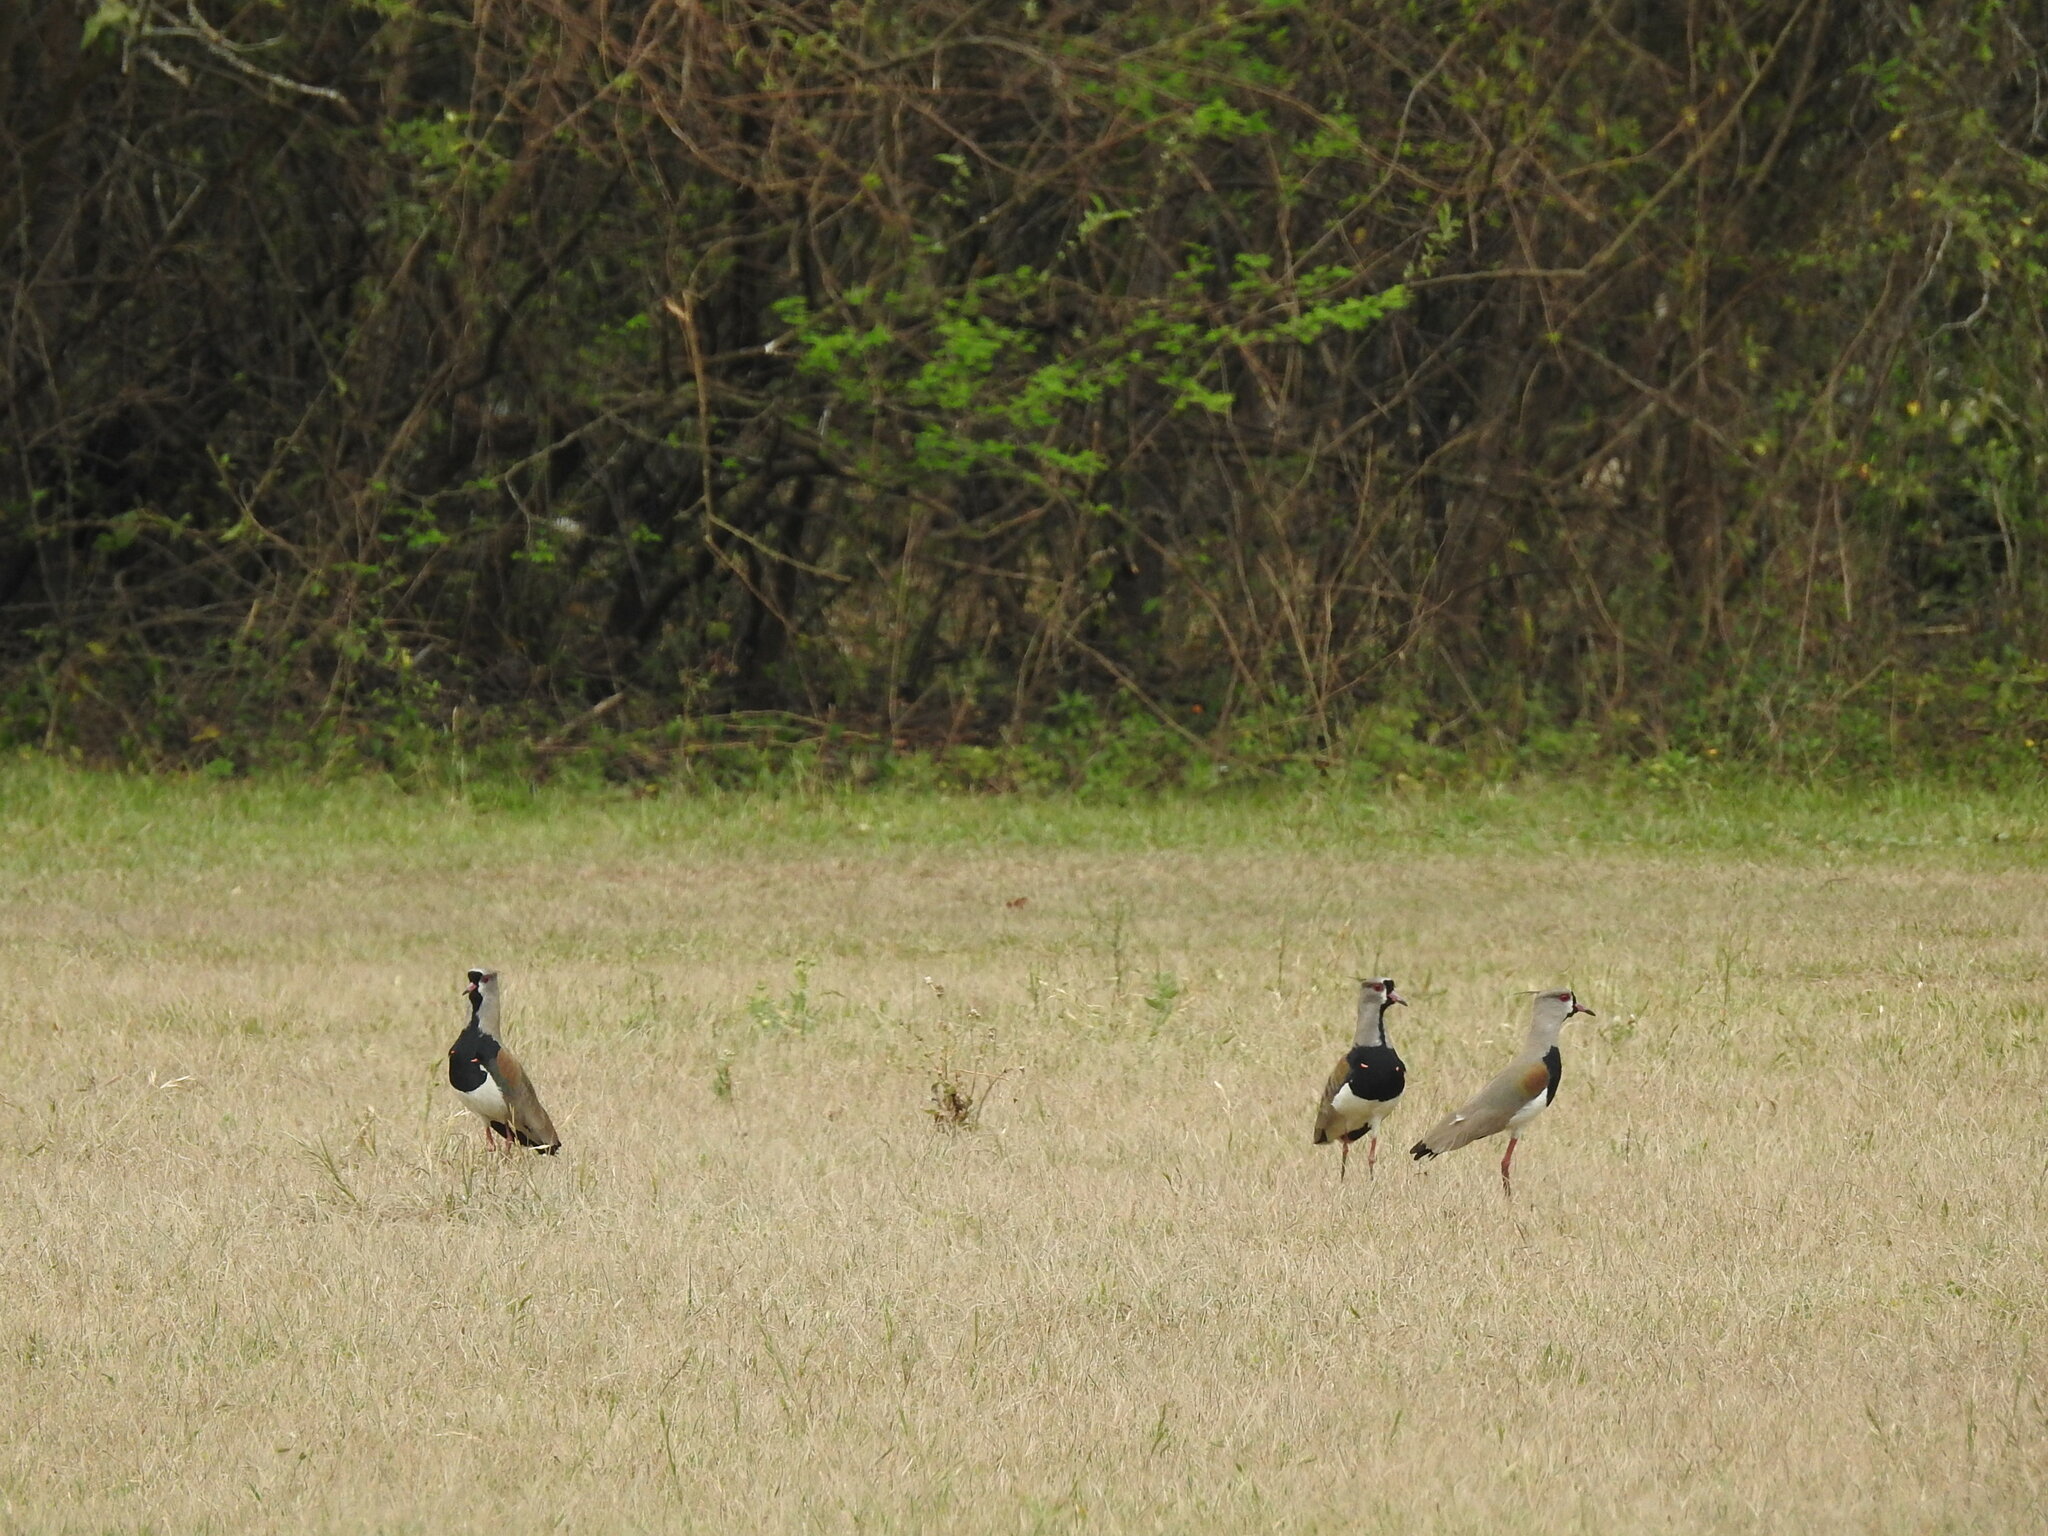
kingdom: Animalia
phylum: Chordata
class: Aves
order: Charadriiformes
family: Charadriidae
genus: Vanellus
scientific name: Vanellus chilensis
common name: Southern lapwing
